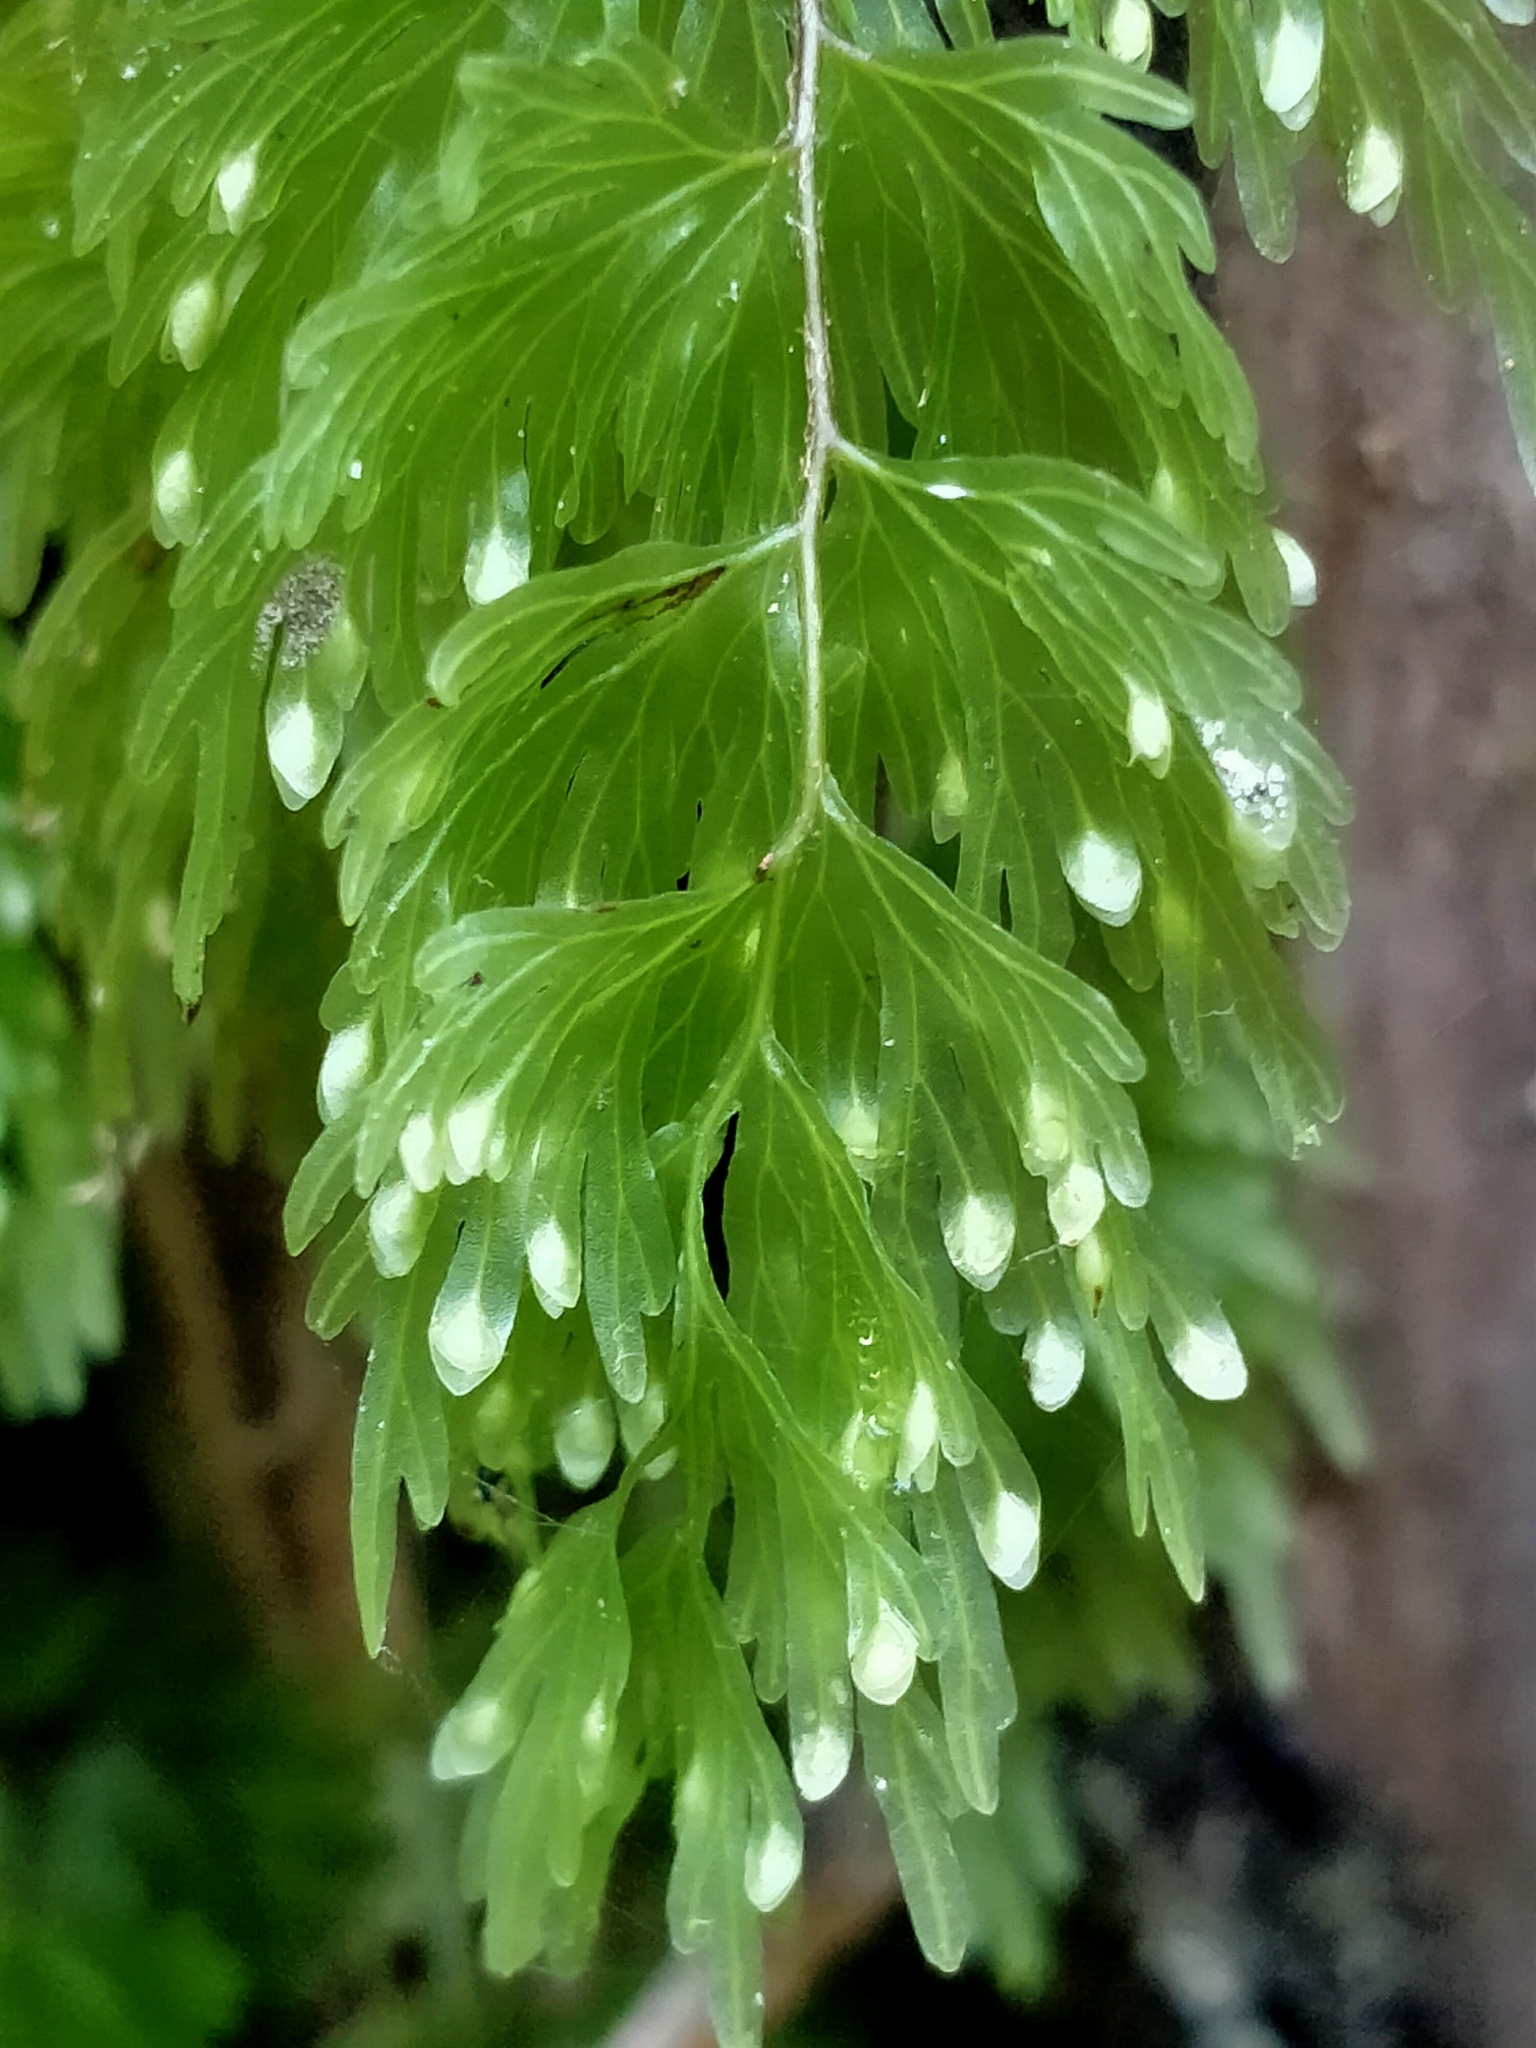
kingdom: Plantae
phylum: Tracheophyta
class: Polypodiopsida
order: Hymenophyllales
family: Hymenophyllaceae
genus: Hymenophyllum
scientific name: Hymenophyllum flabellatum
